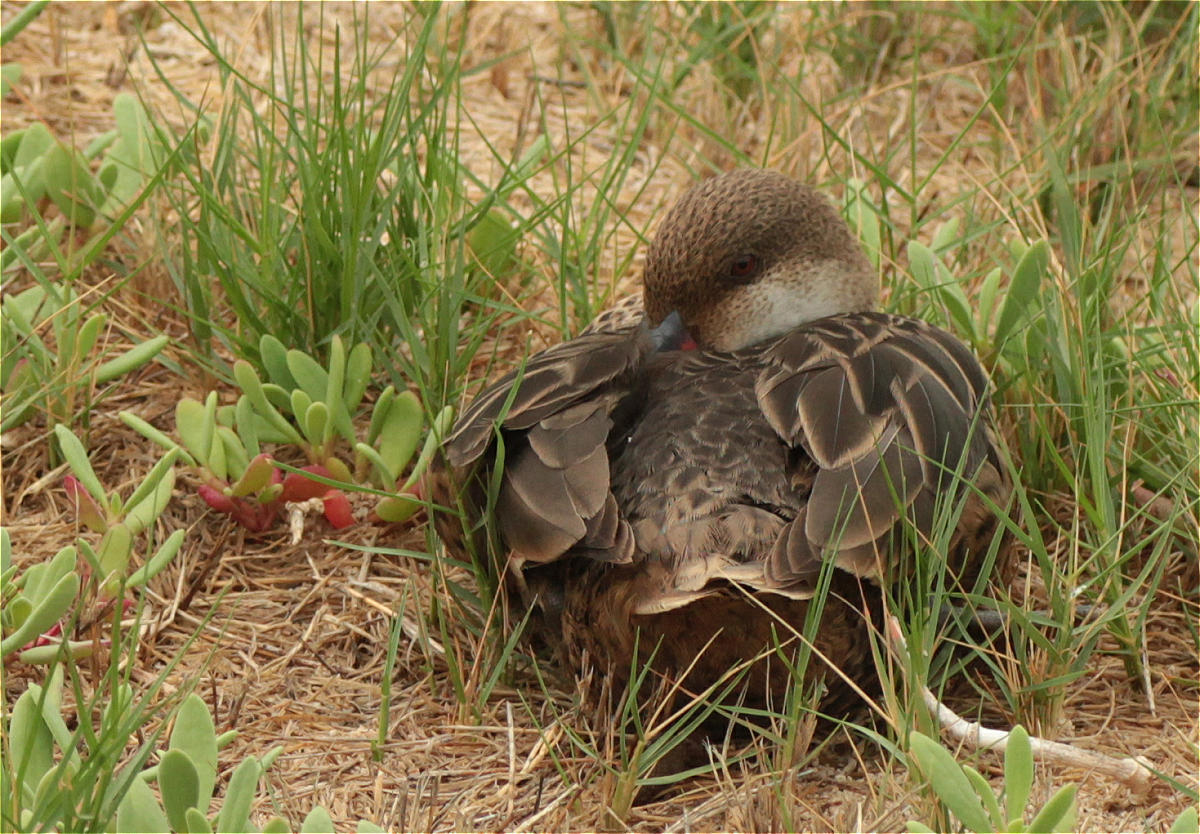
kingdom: Animalia
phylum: Chordata
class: Aves
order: Anseriformes
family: Anatidae
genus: Anas
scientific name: Anas bahamensis
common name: White-cheeked pintail
